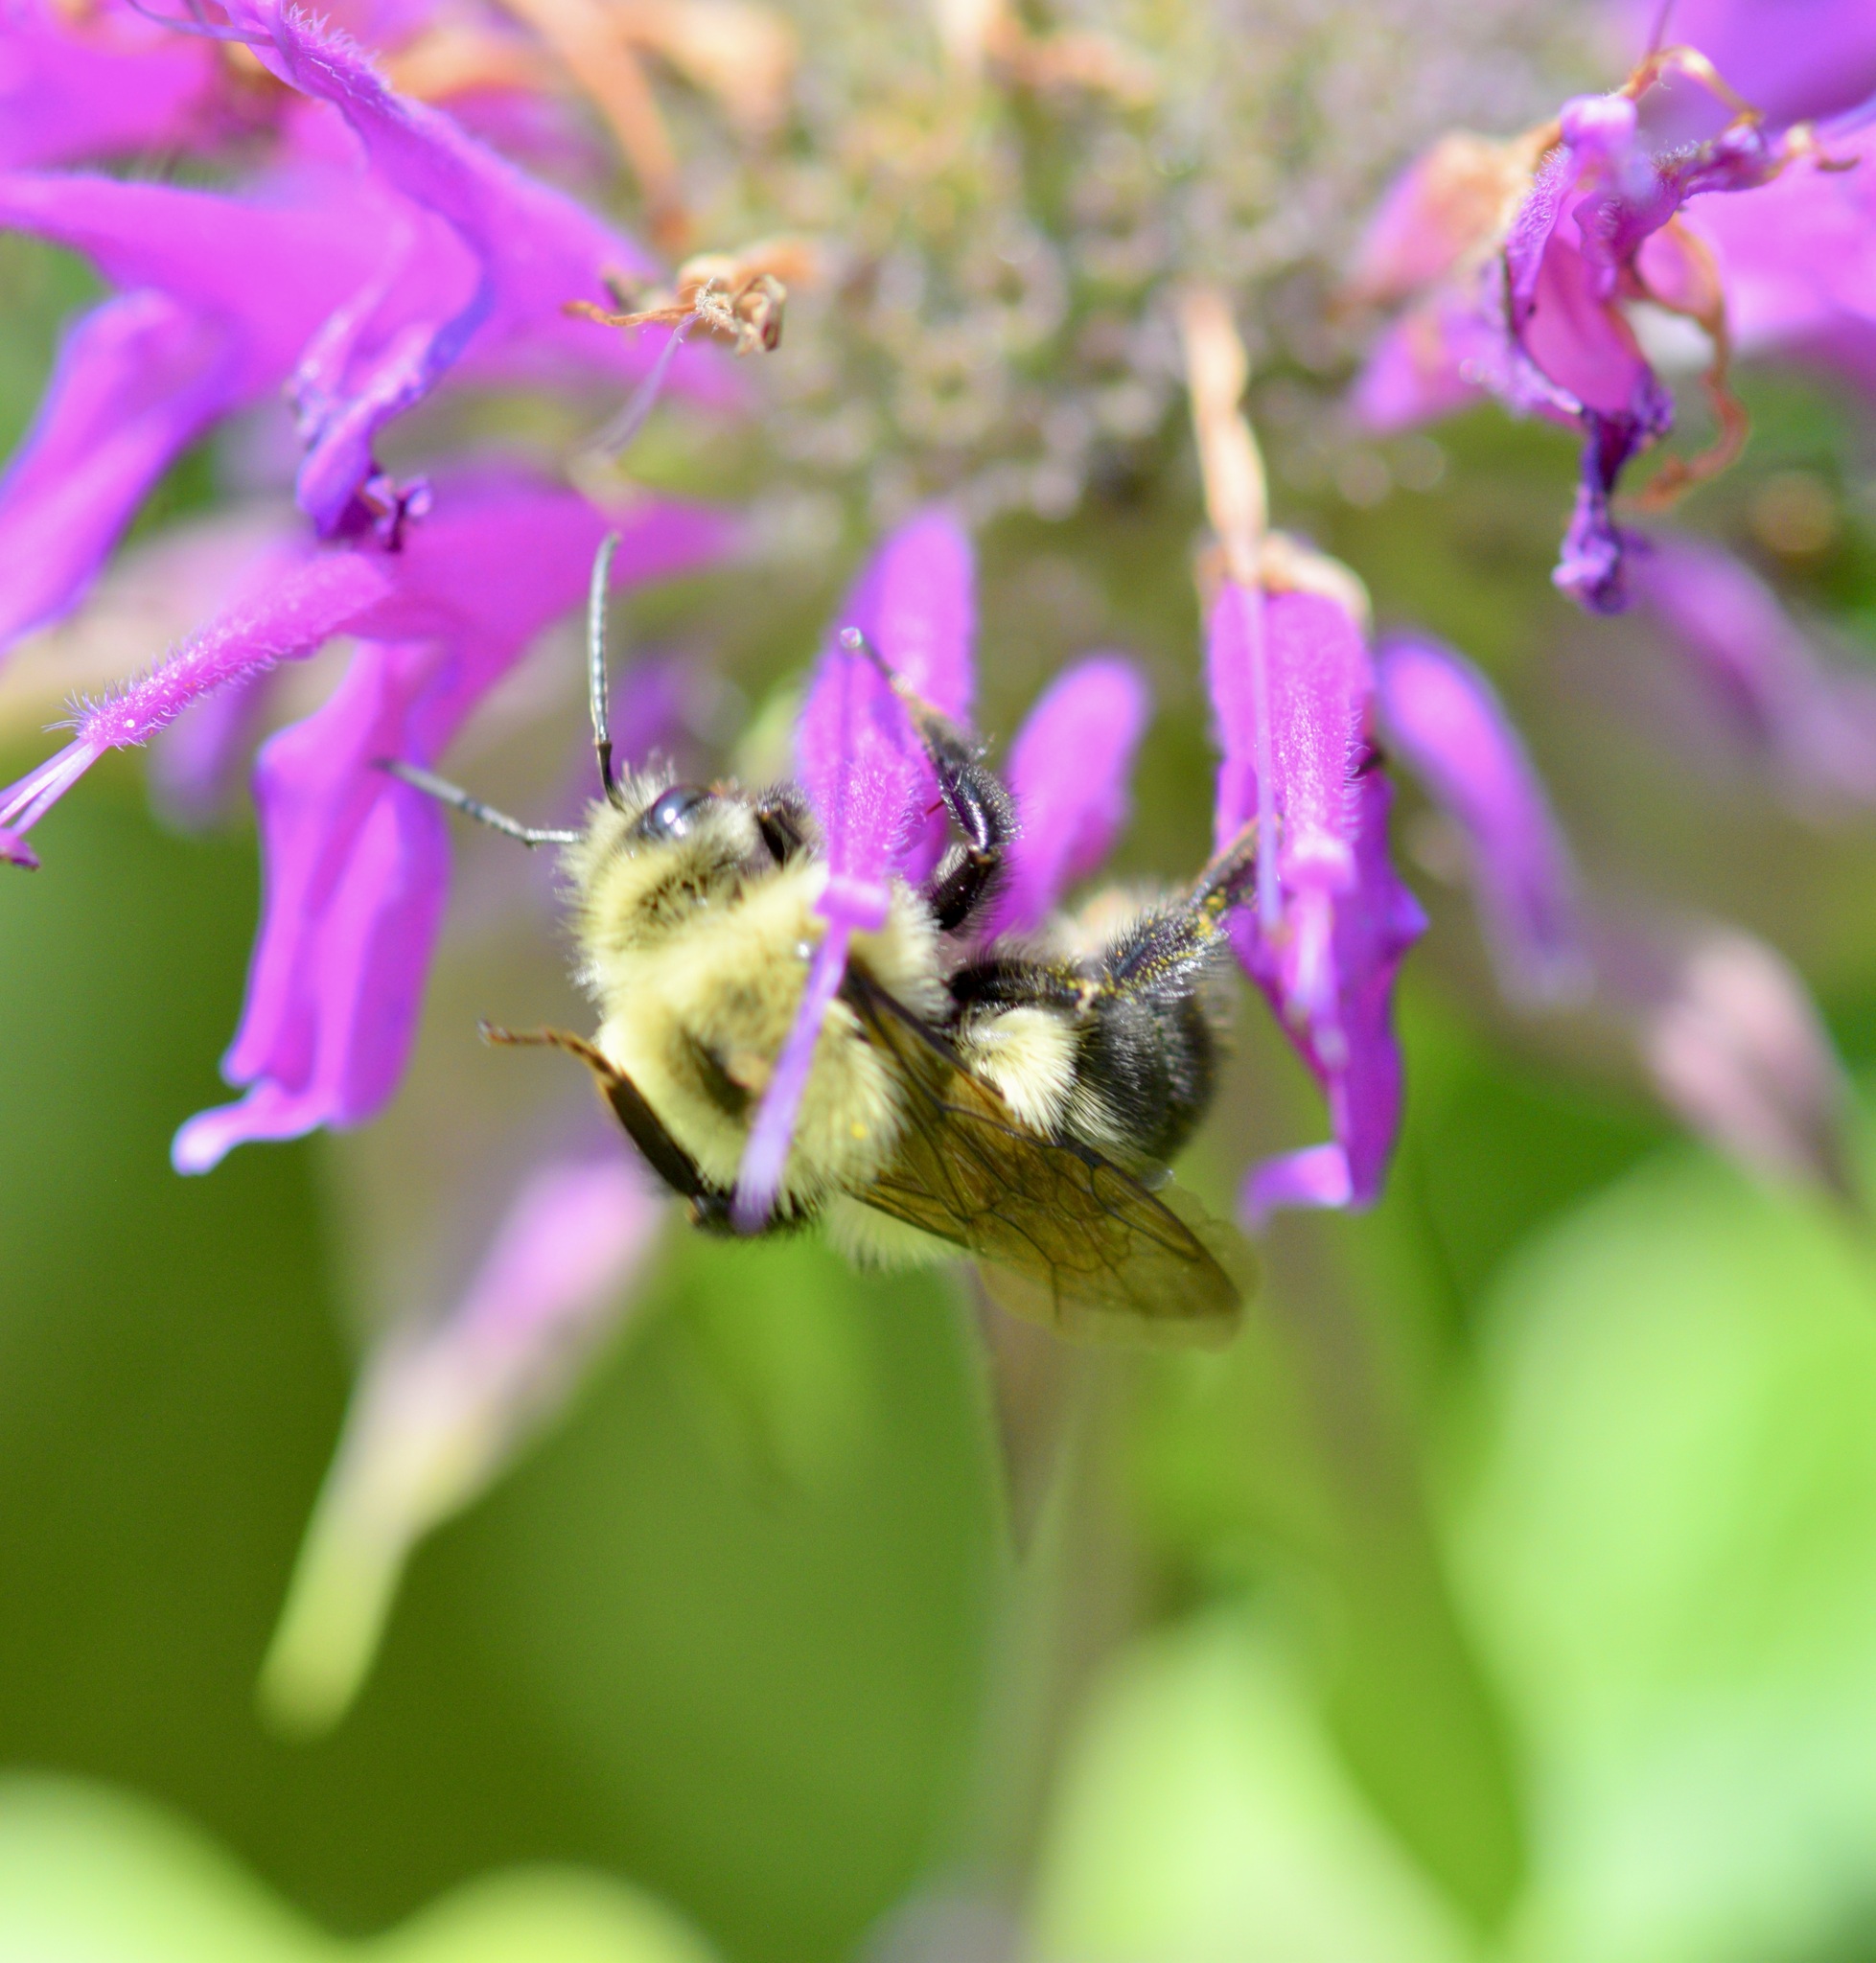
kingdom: Animalia
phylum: Arthropoda
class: Insecta
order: Hymenoptera
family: Apidae
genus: Bombus
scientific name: Bombus bimaculatus
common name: Two-spotted bumble bee
